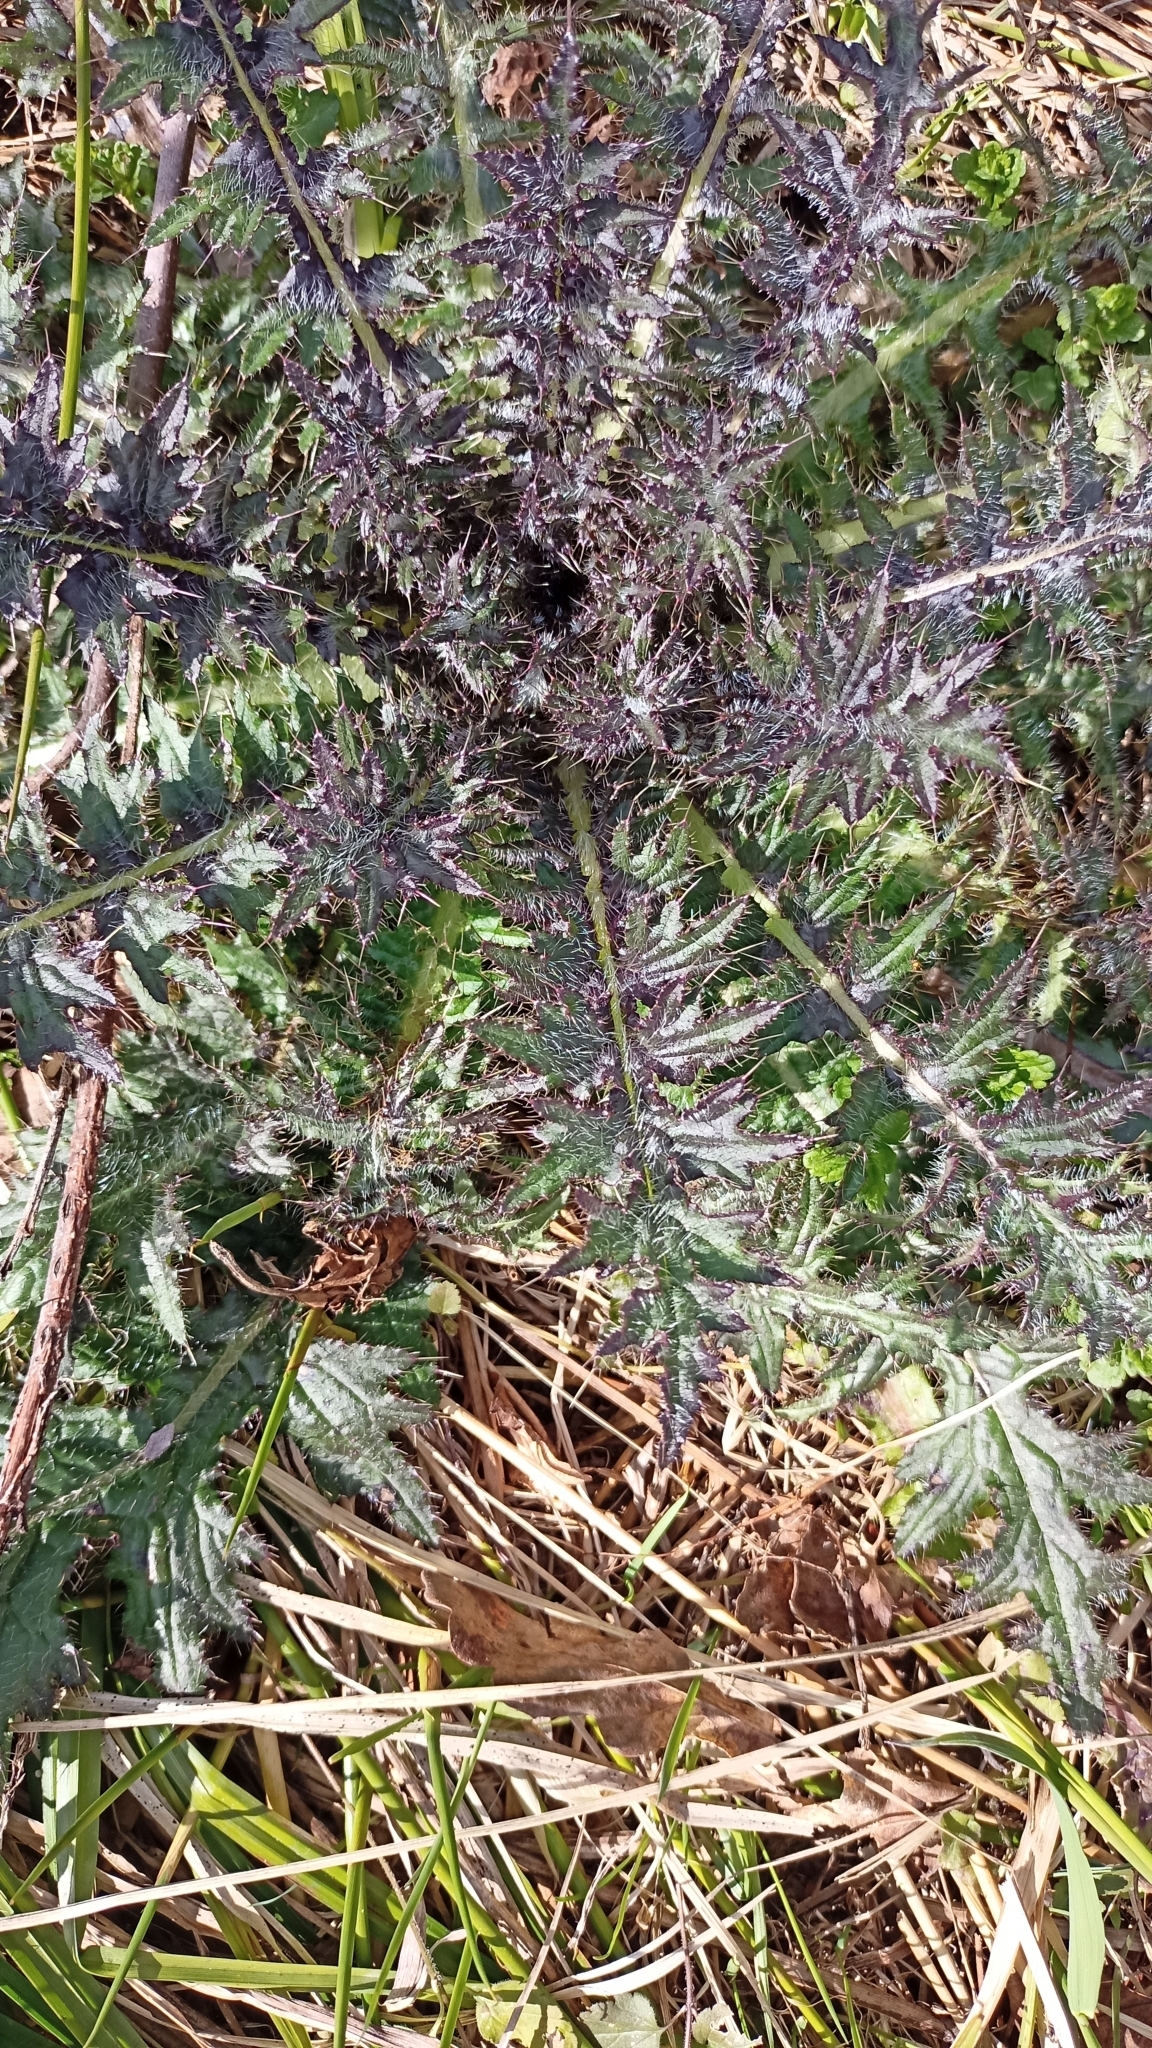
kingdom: Plantae
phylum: Tracheophyta
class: Magnoliopsida
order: Asterales
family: Asteraceae
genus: Cirsium
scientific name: Cirsium palustre
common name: Marsh thistle
